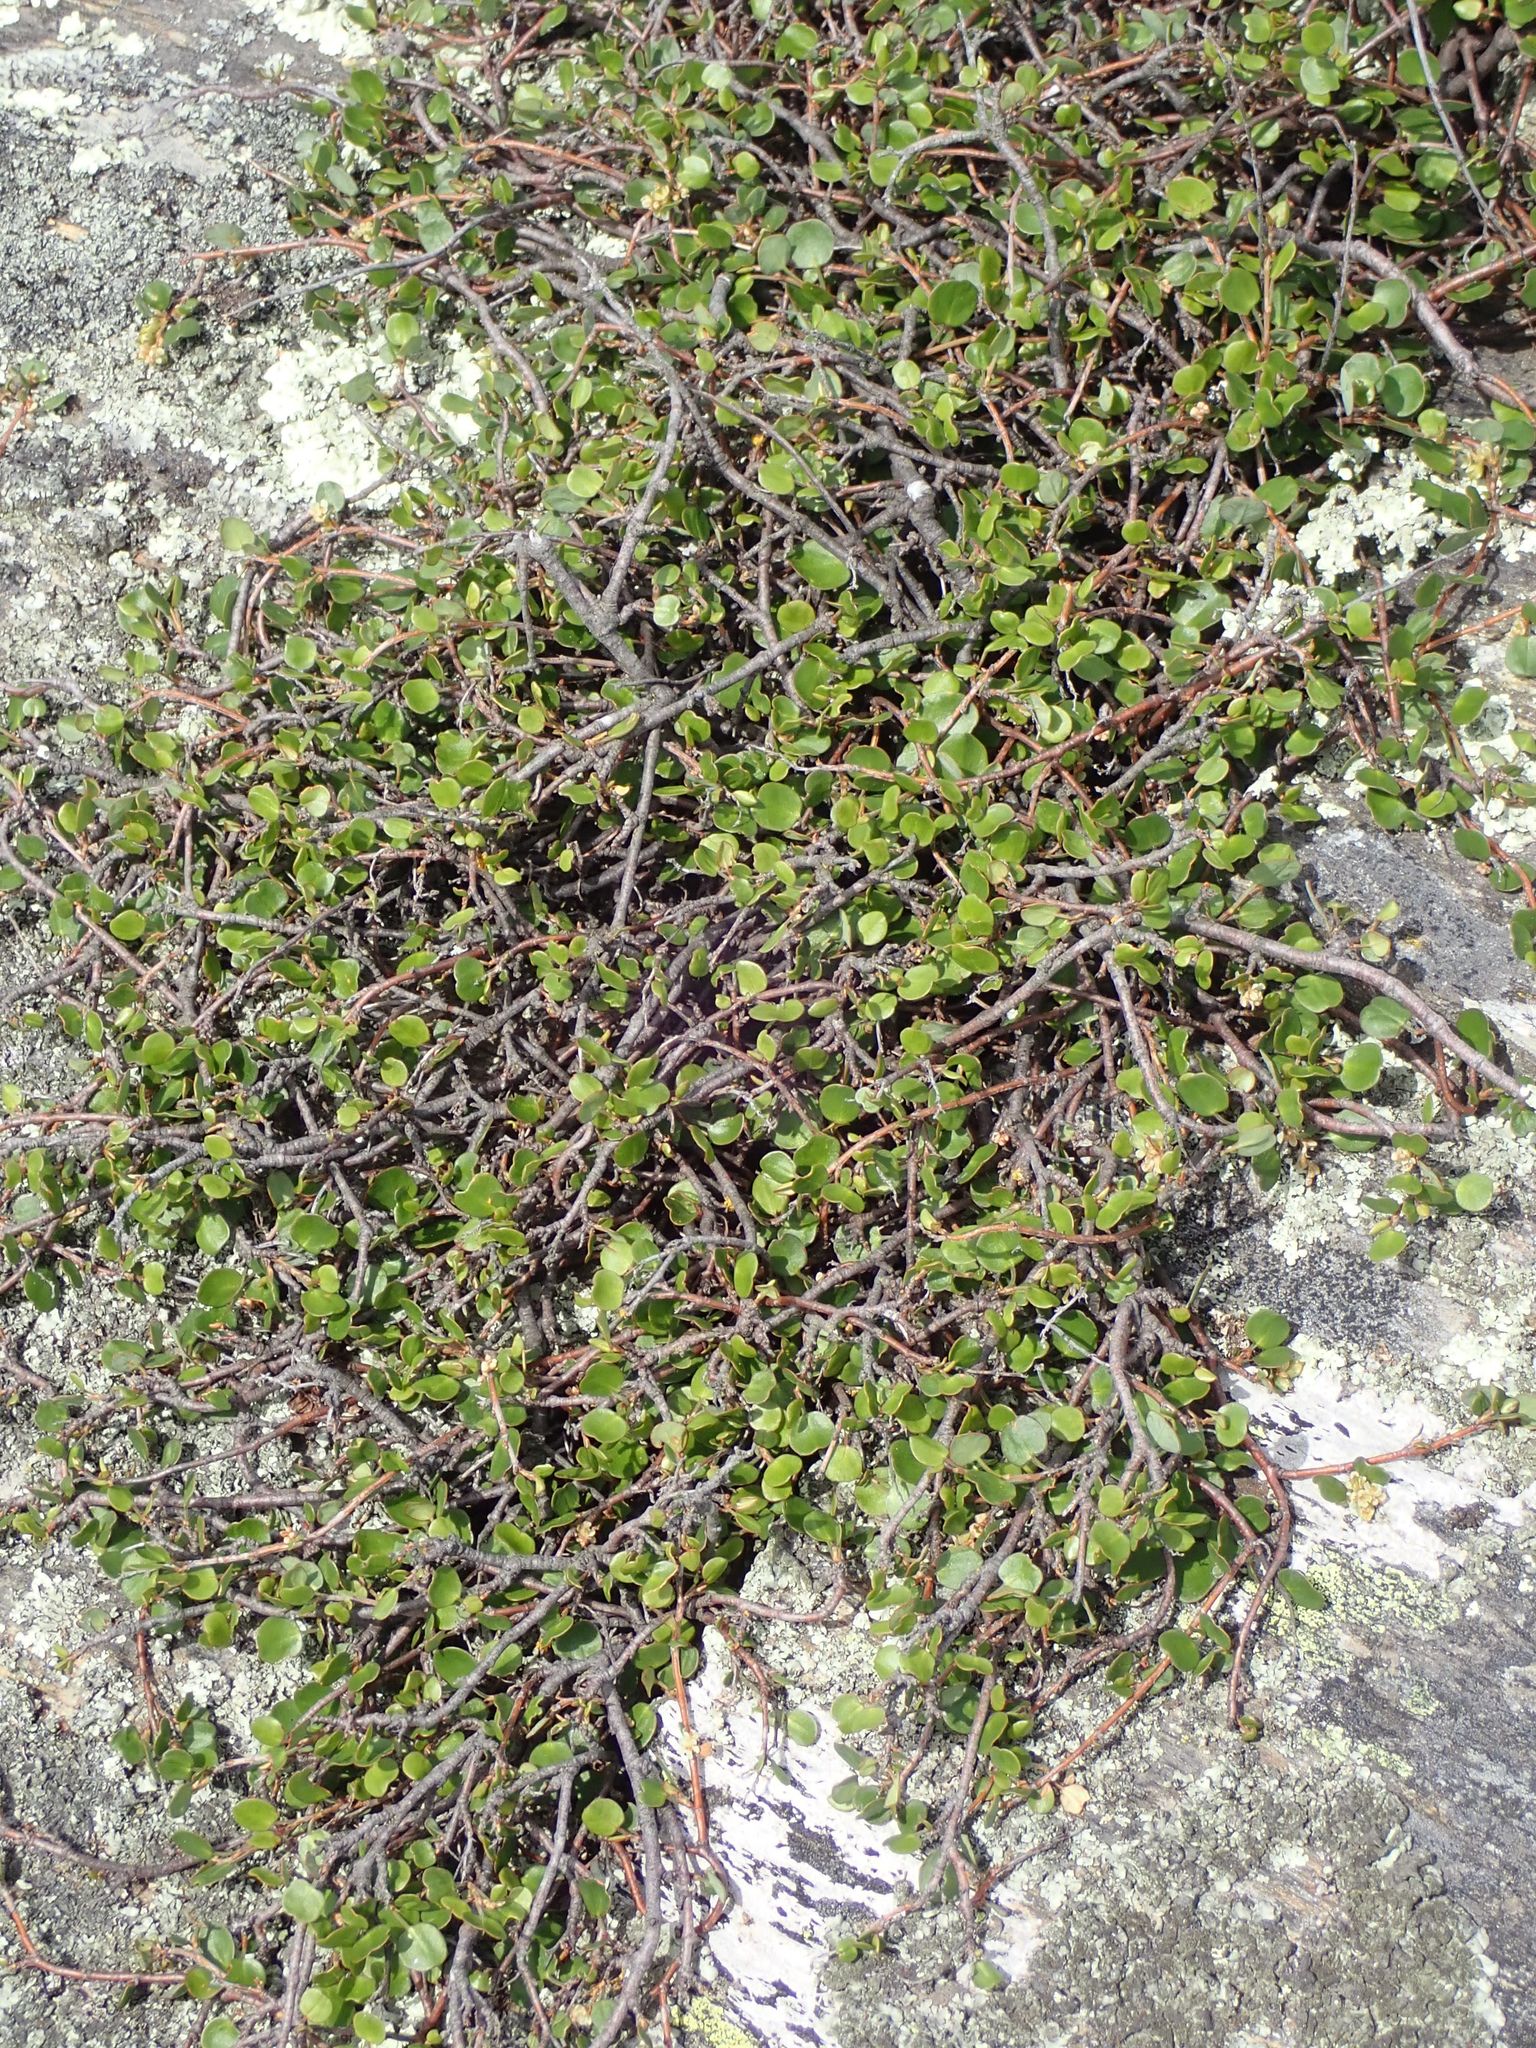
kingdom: Plantae
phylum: Tracheophyta
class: Magnoliopsida
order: Caryophyllales
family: Polygonaceae
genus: Muehlenbeckia
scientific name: Muehlenbeckia complexa
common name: Wireplant
